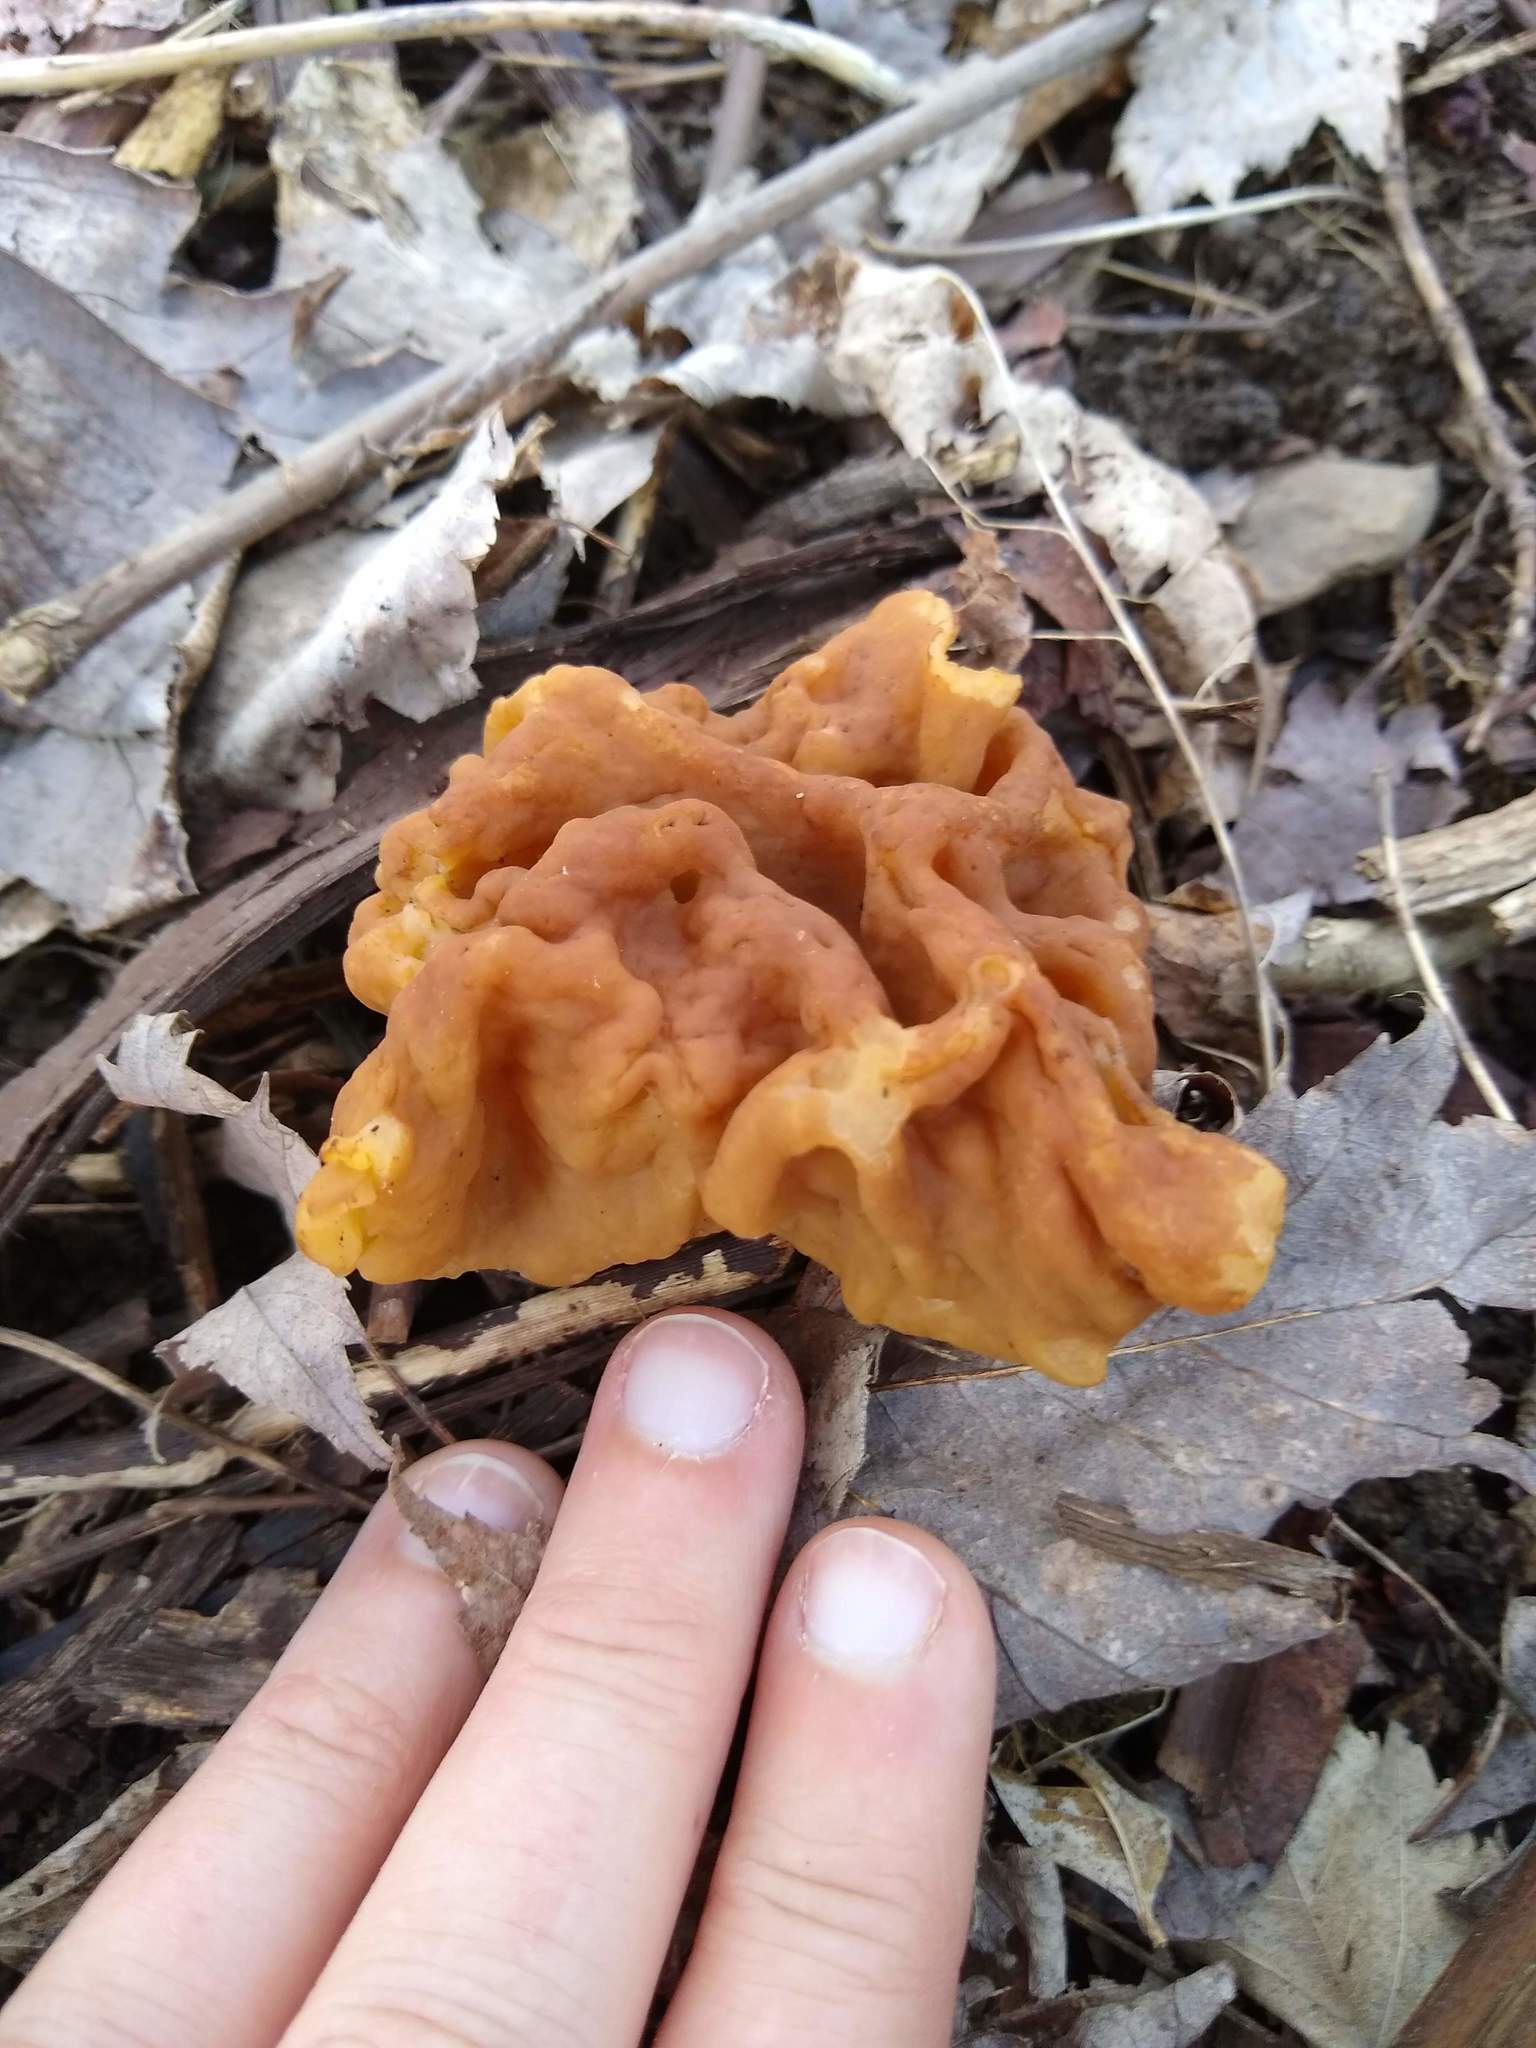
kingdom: Fungi
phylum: Ascomycota
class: Pezizomycetes
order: Pezizales
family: Discinaceae
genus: Gyromitra
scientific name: Gyromitra korfii
